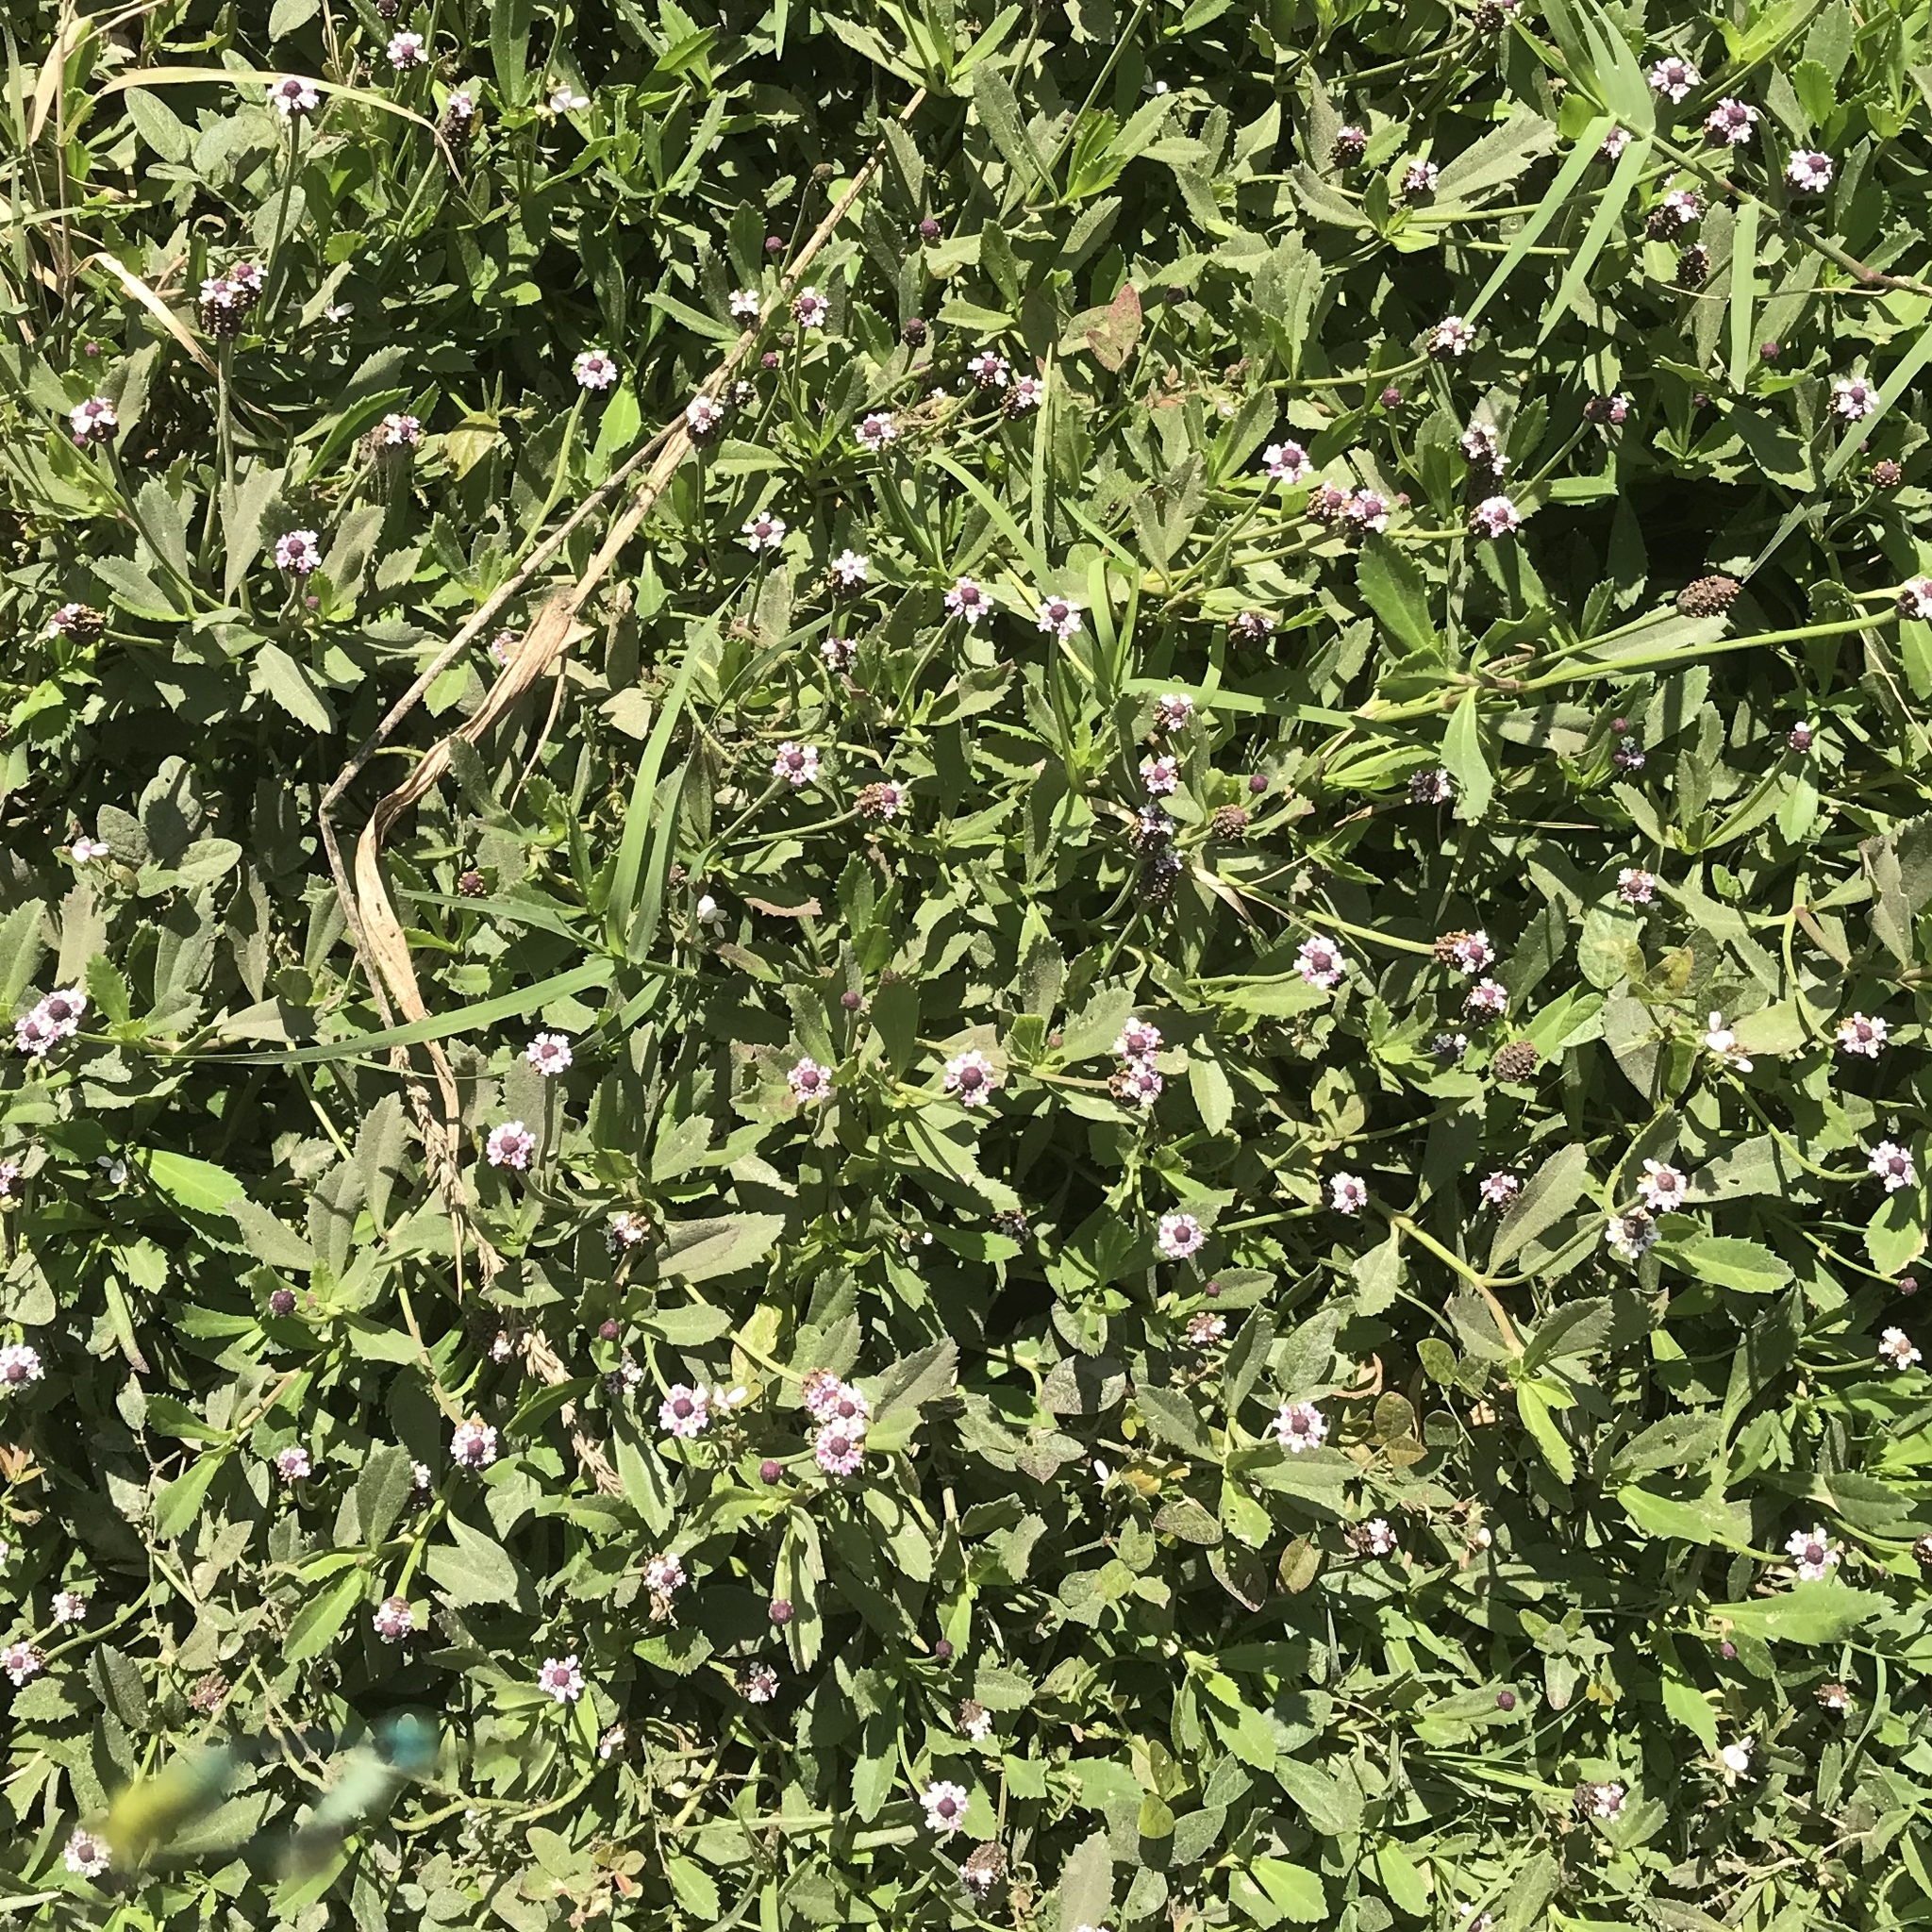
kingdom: Plantae
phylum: Tracheophyta
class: Magnoliopsida
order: Lamiales
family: Verbenaceae
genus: Phyla
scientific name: Phyla nodiflora
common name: Frogfruit
